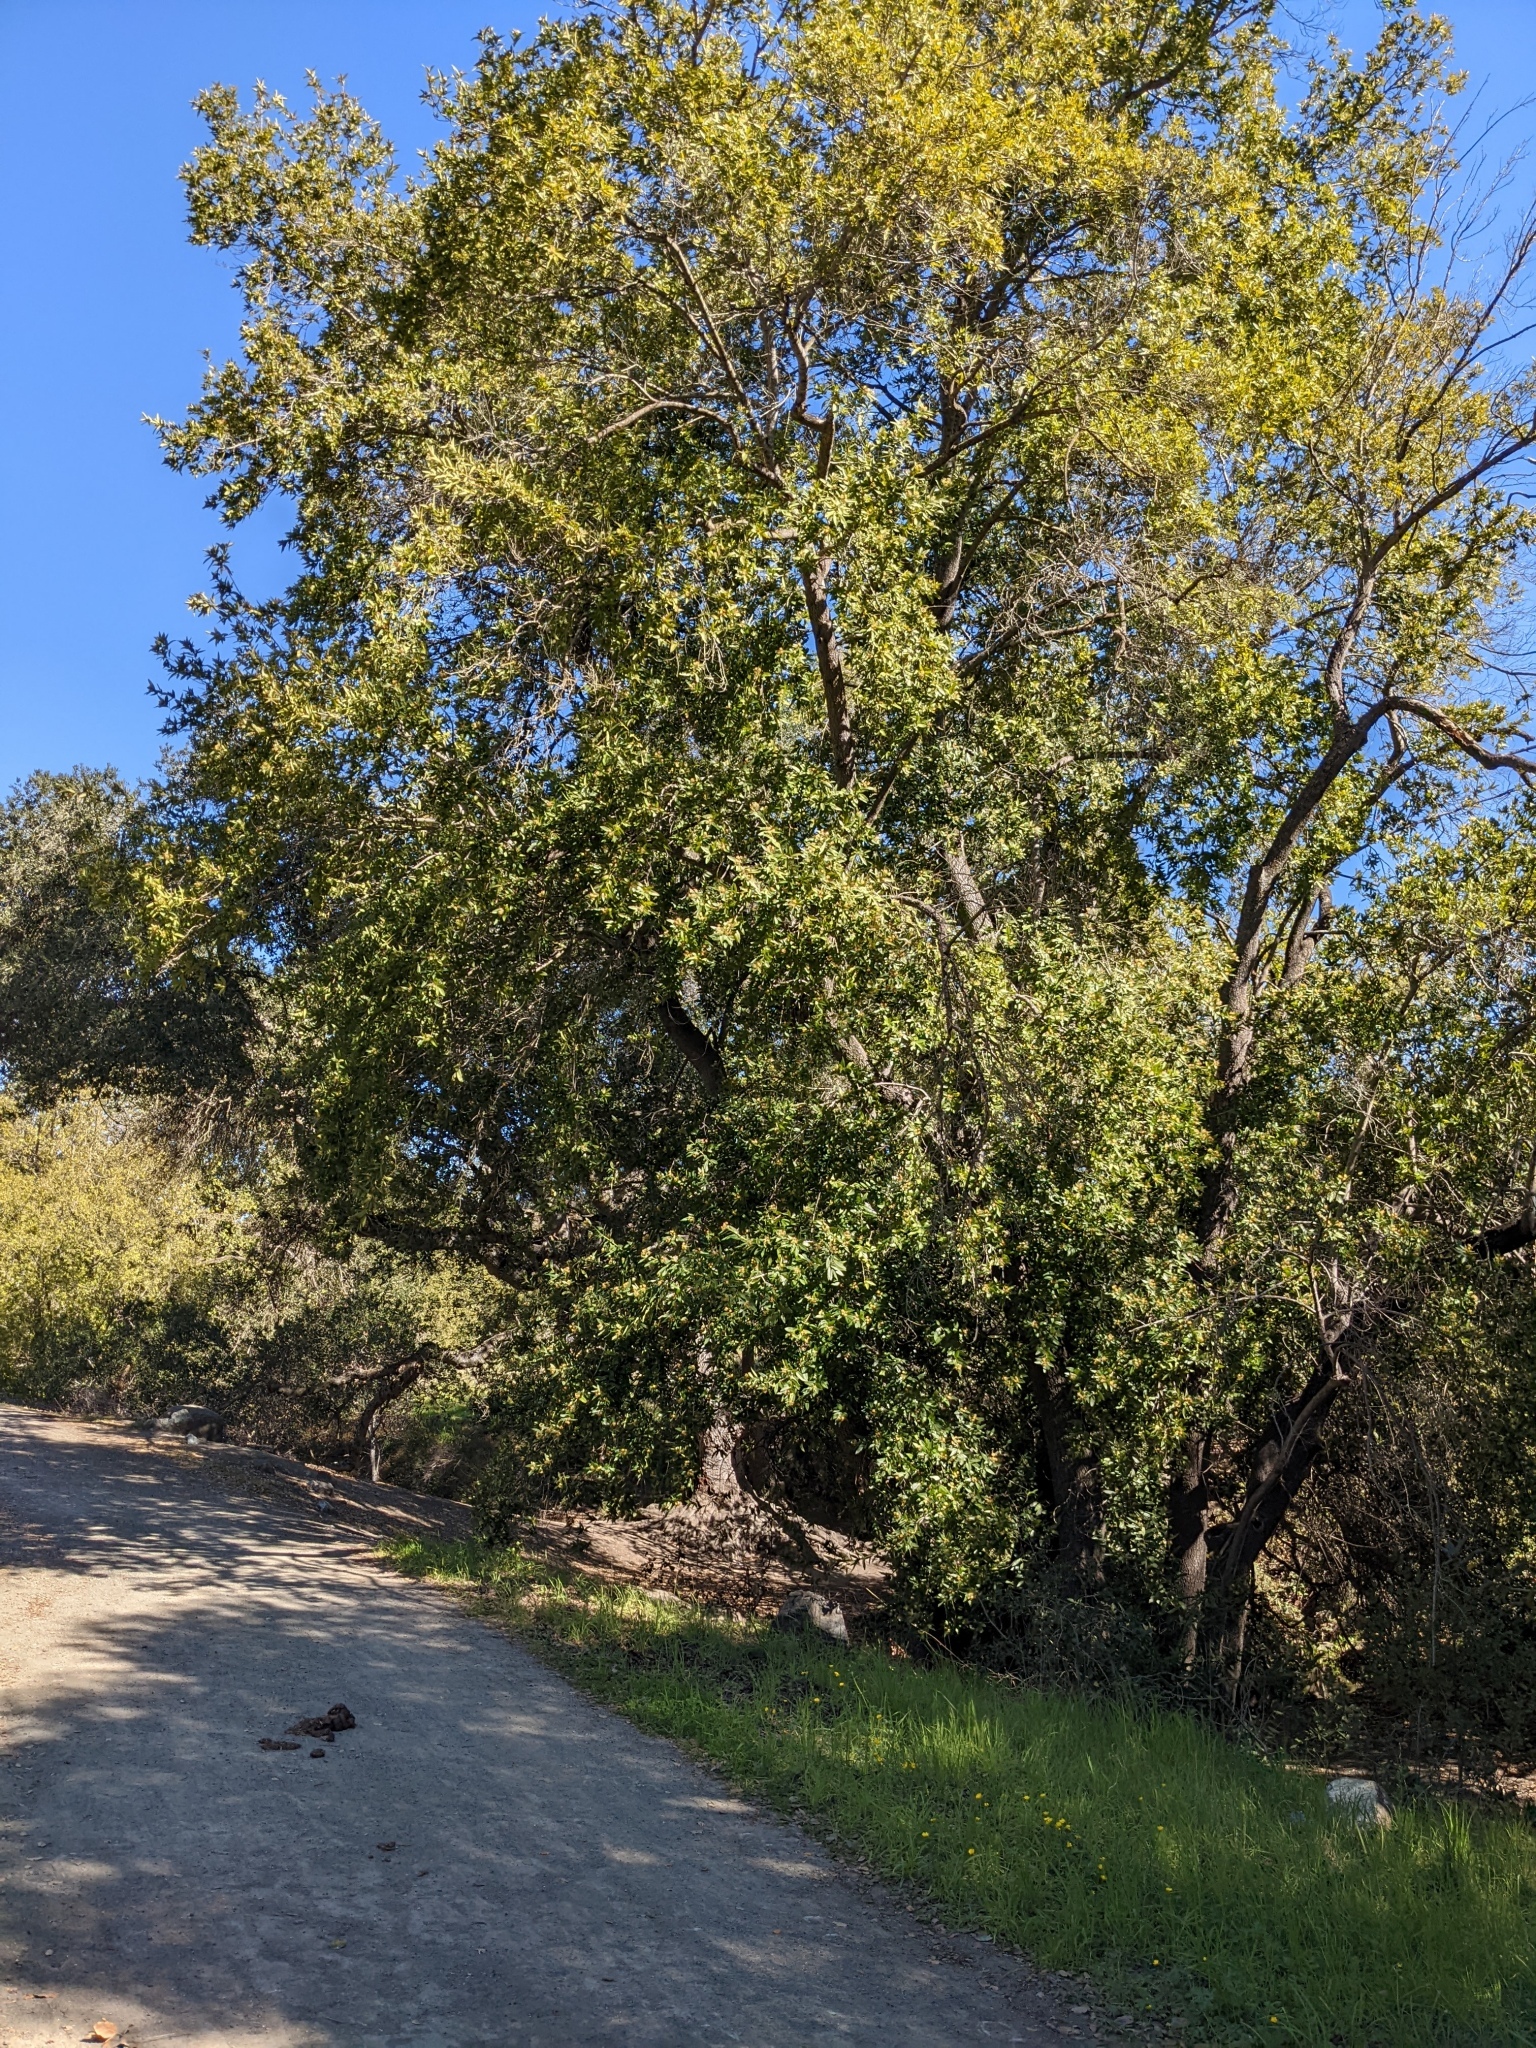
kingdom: Plantae
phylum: Tracheophyta
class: Magnoliopsida
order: Laurales
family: Lauraceae
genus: Umbellularia
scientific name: Umbellularia californica
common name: California bay
